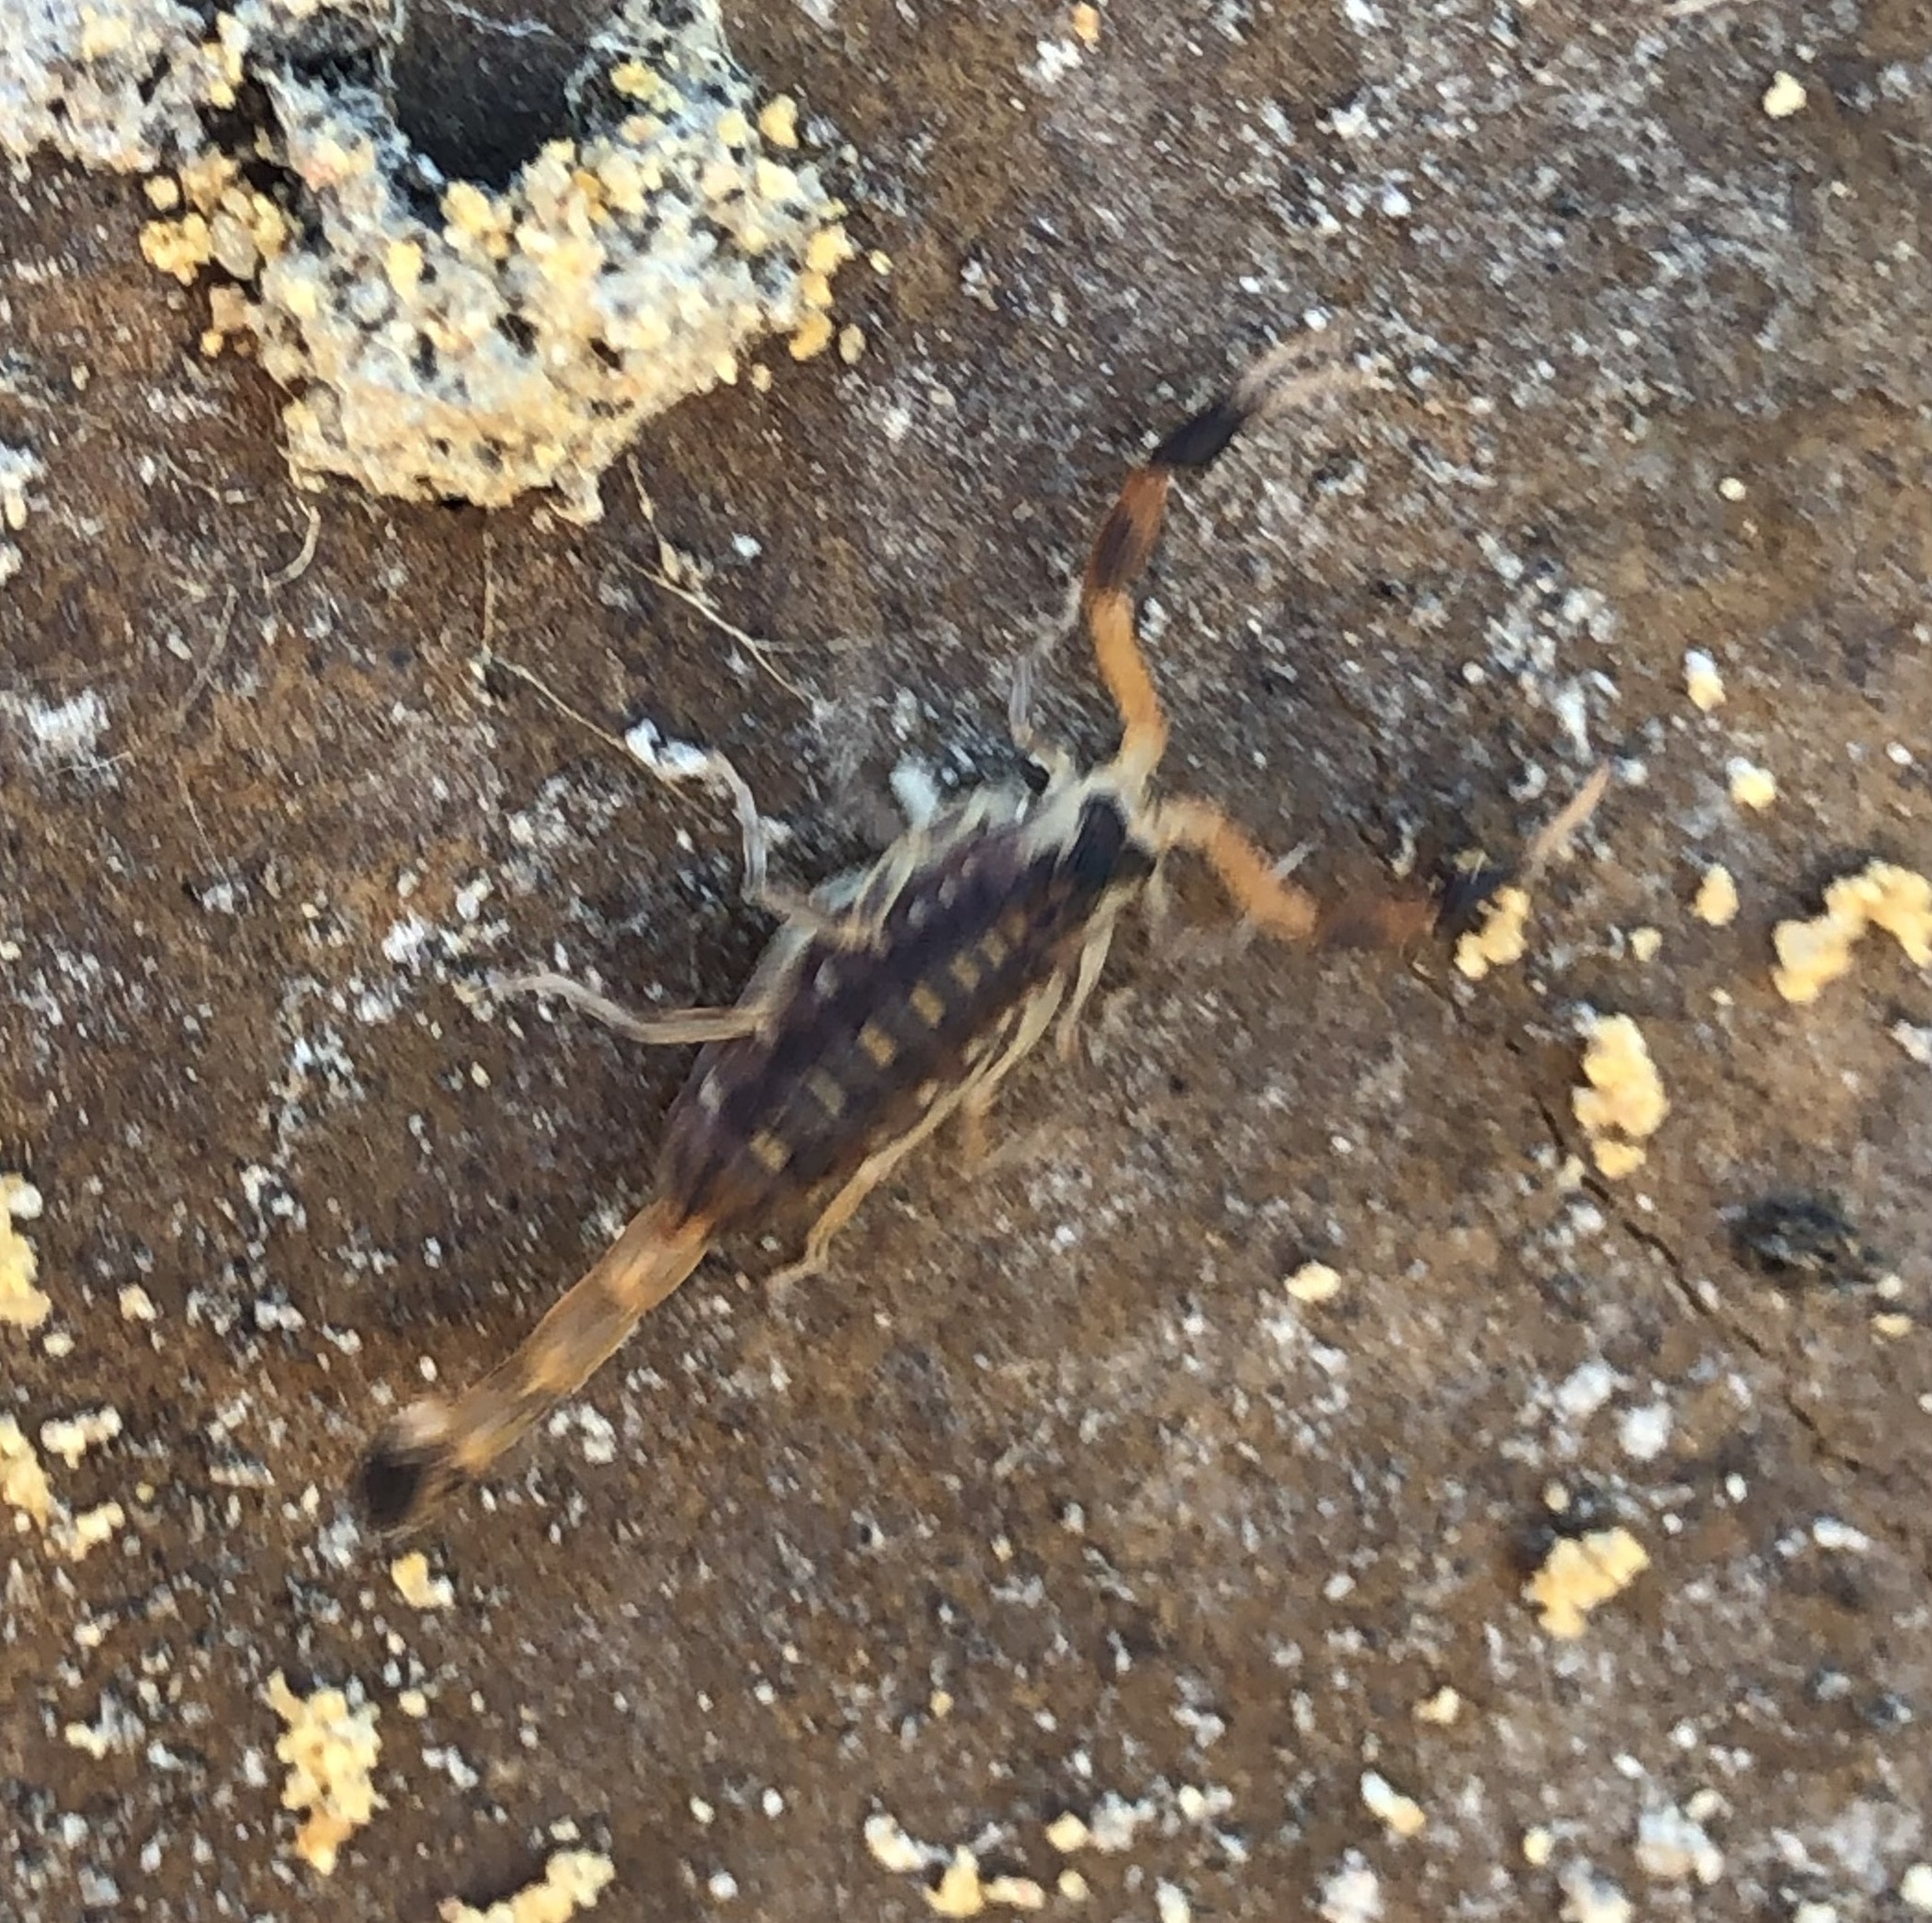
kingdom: Animalia
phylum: Arthropoda
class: Arachnida
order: Scorpiones
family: Buthidae
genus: Centruroides
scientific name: Centruroides vittatus
